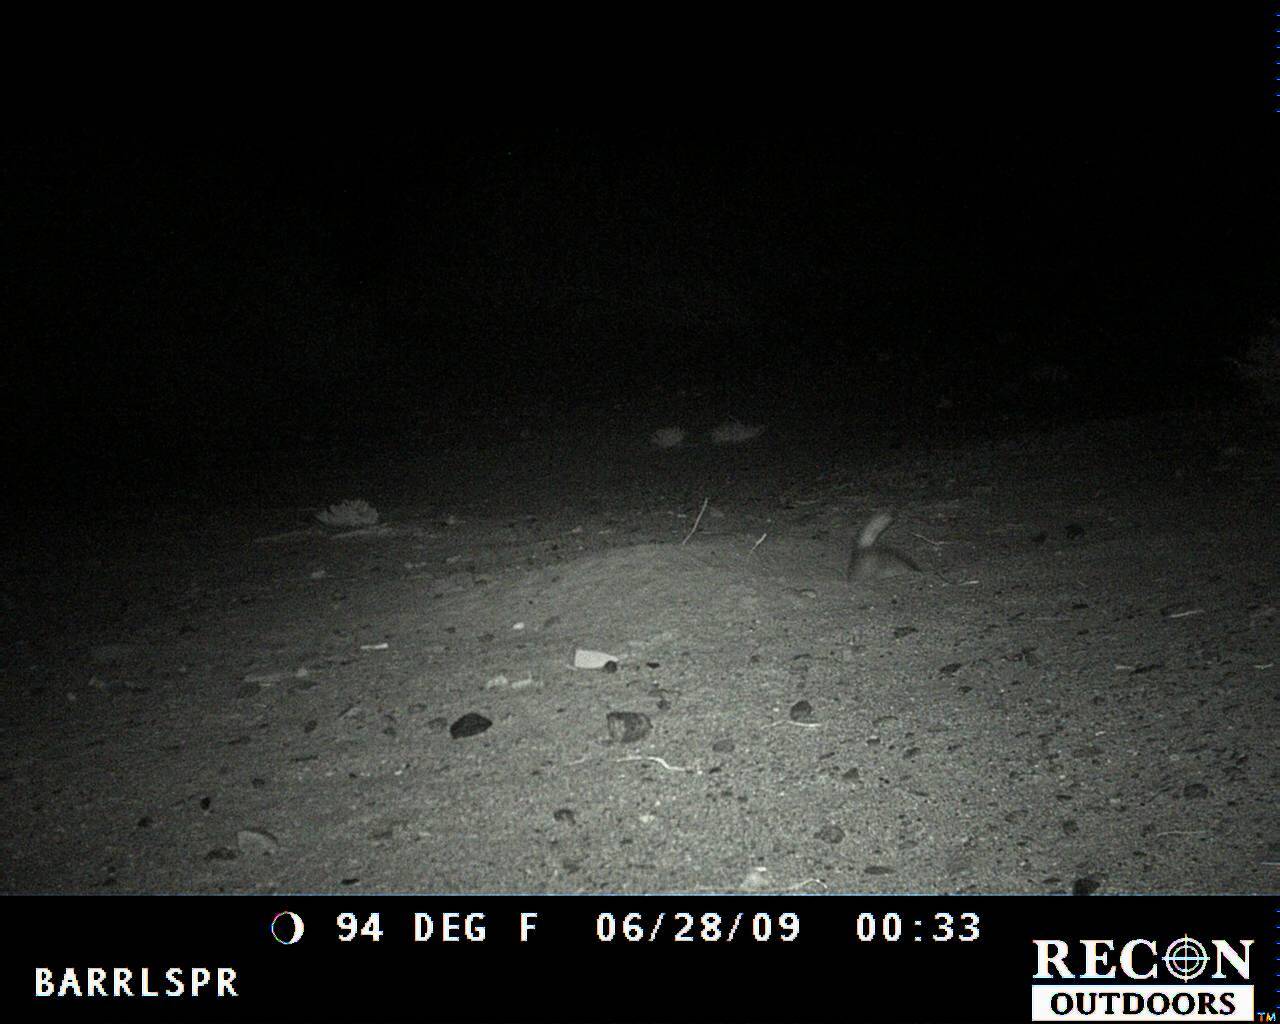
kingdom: Animalia
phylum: Chordata
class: Mammalia
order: Carnivora
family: Mustelidae
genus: Taxidea
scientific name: Taxidea taxus
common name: American badger
